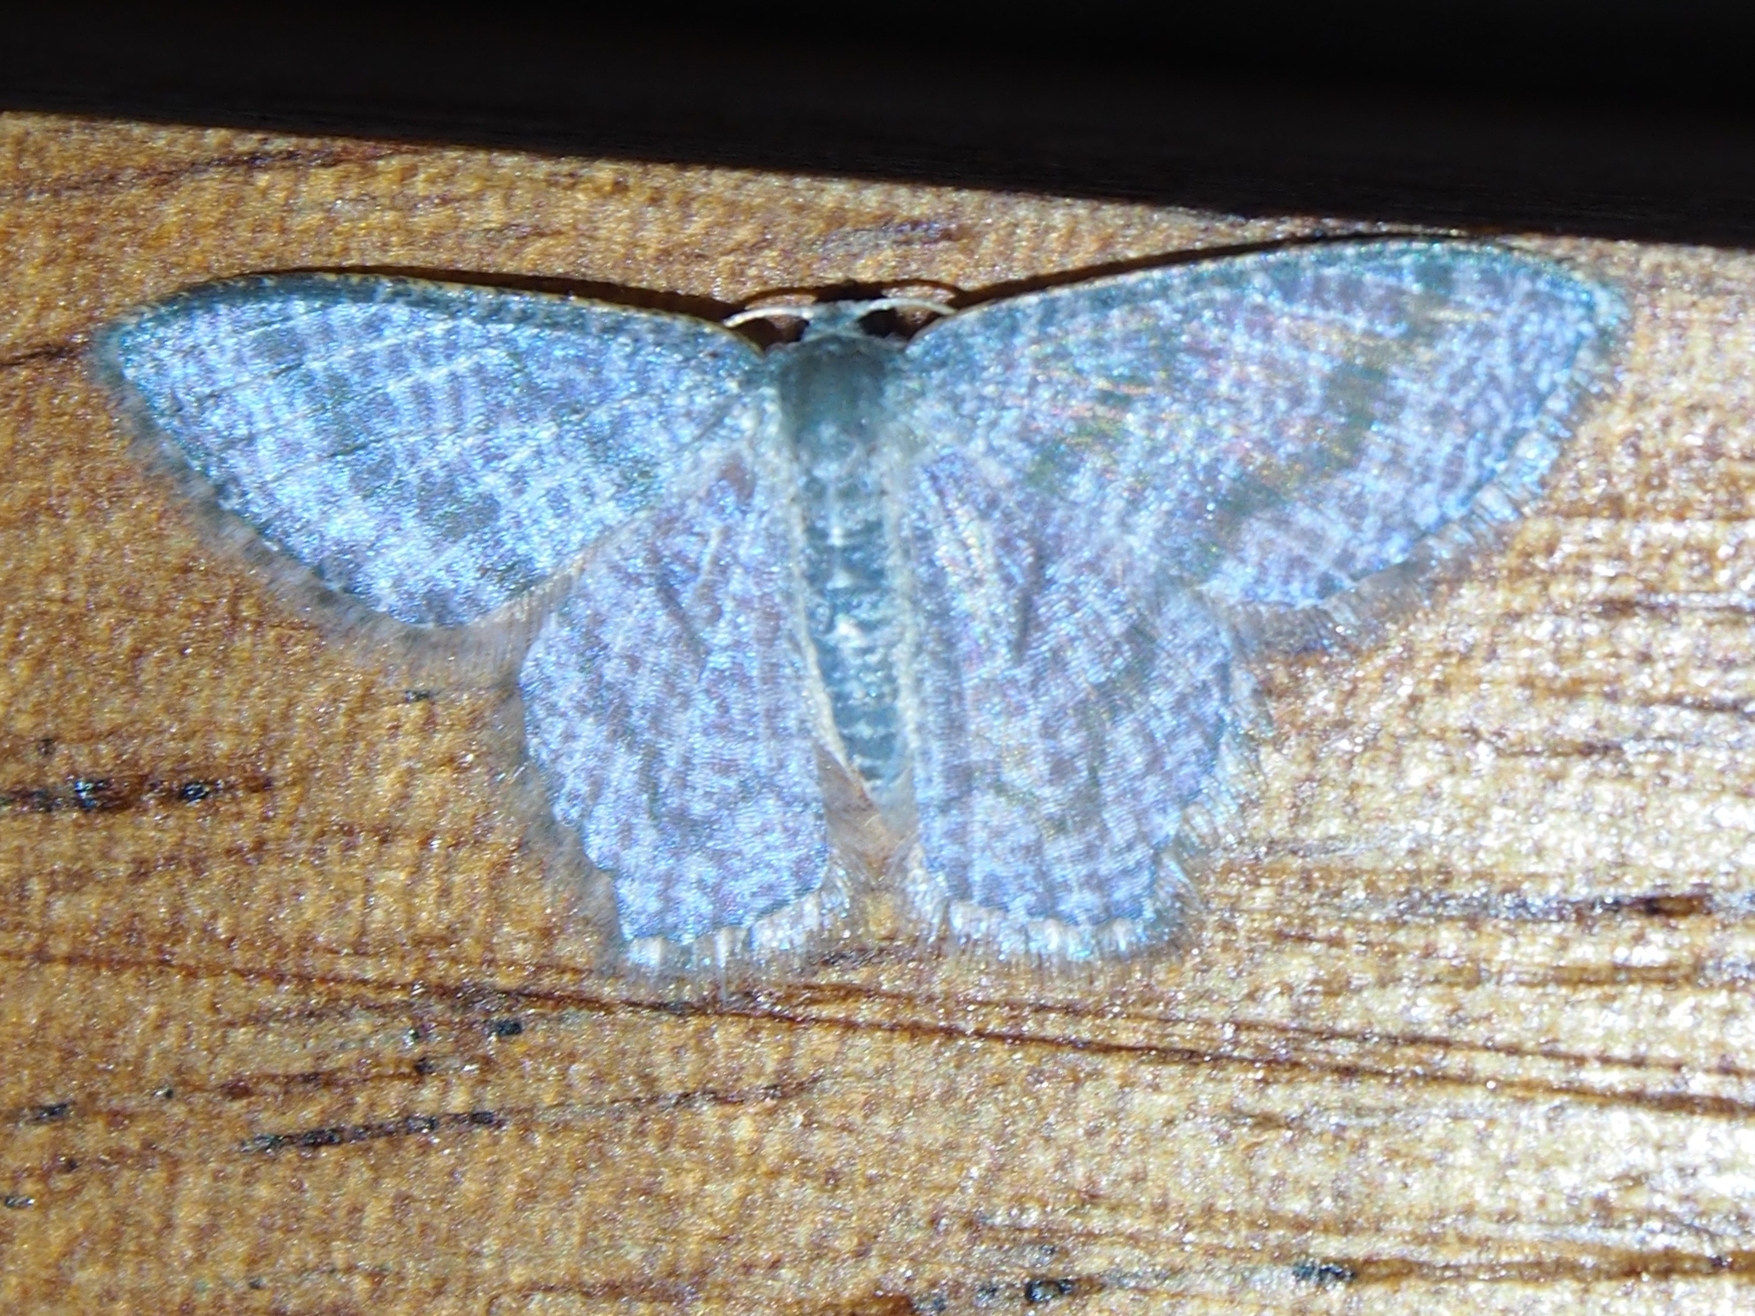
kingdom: Animalia
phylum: Arthropoda
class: Insecta
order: Lepidoptera
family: Geometridae
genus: Chloropteryx
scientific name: Chloropteryx opalaria
